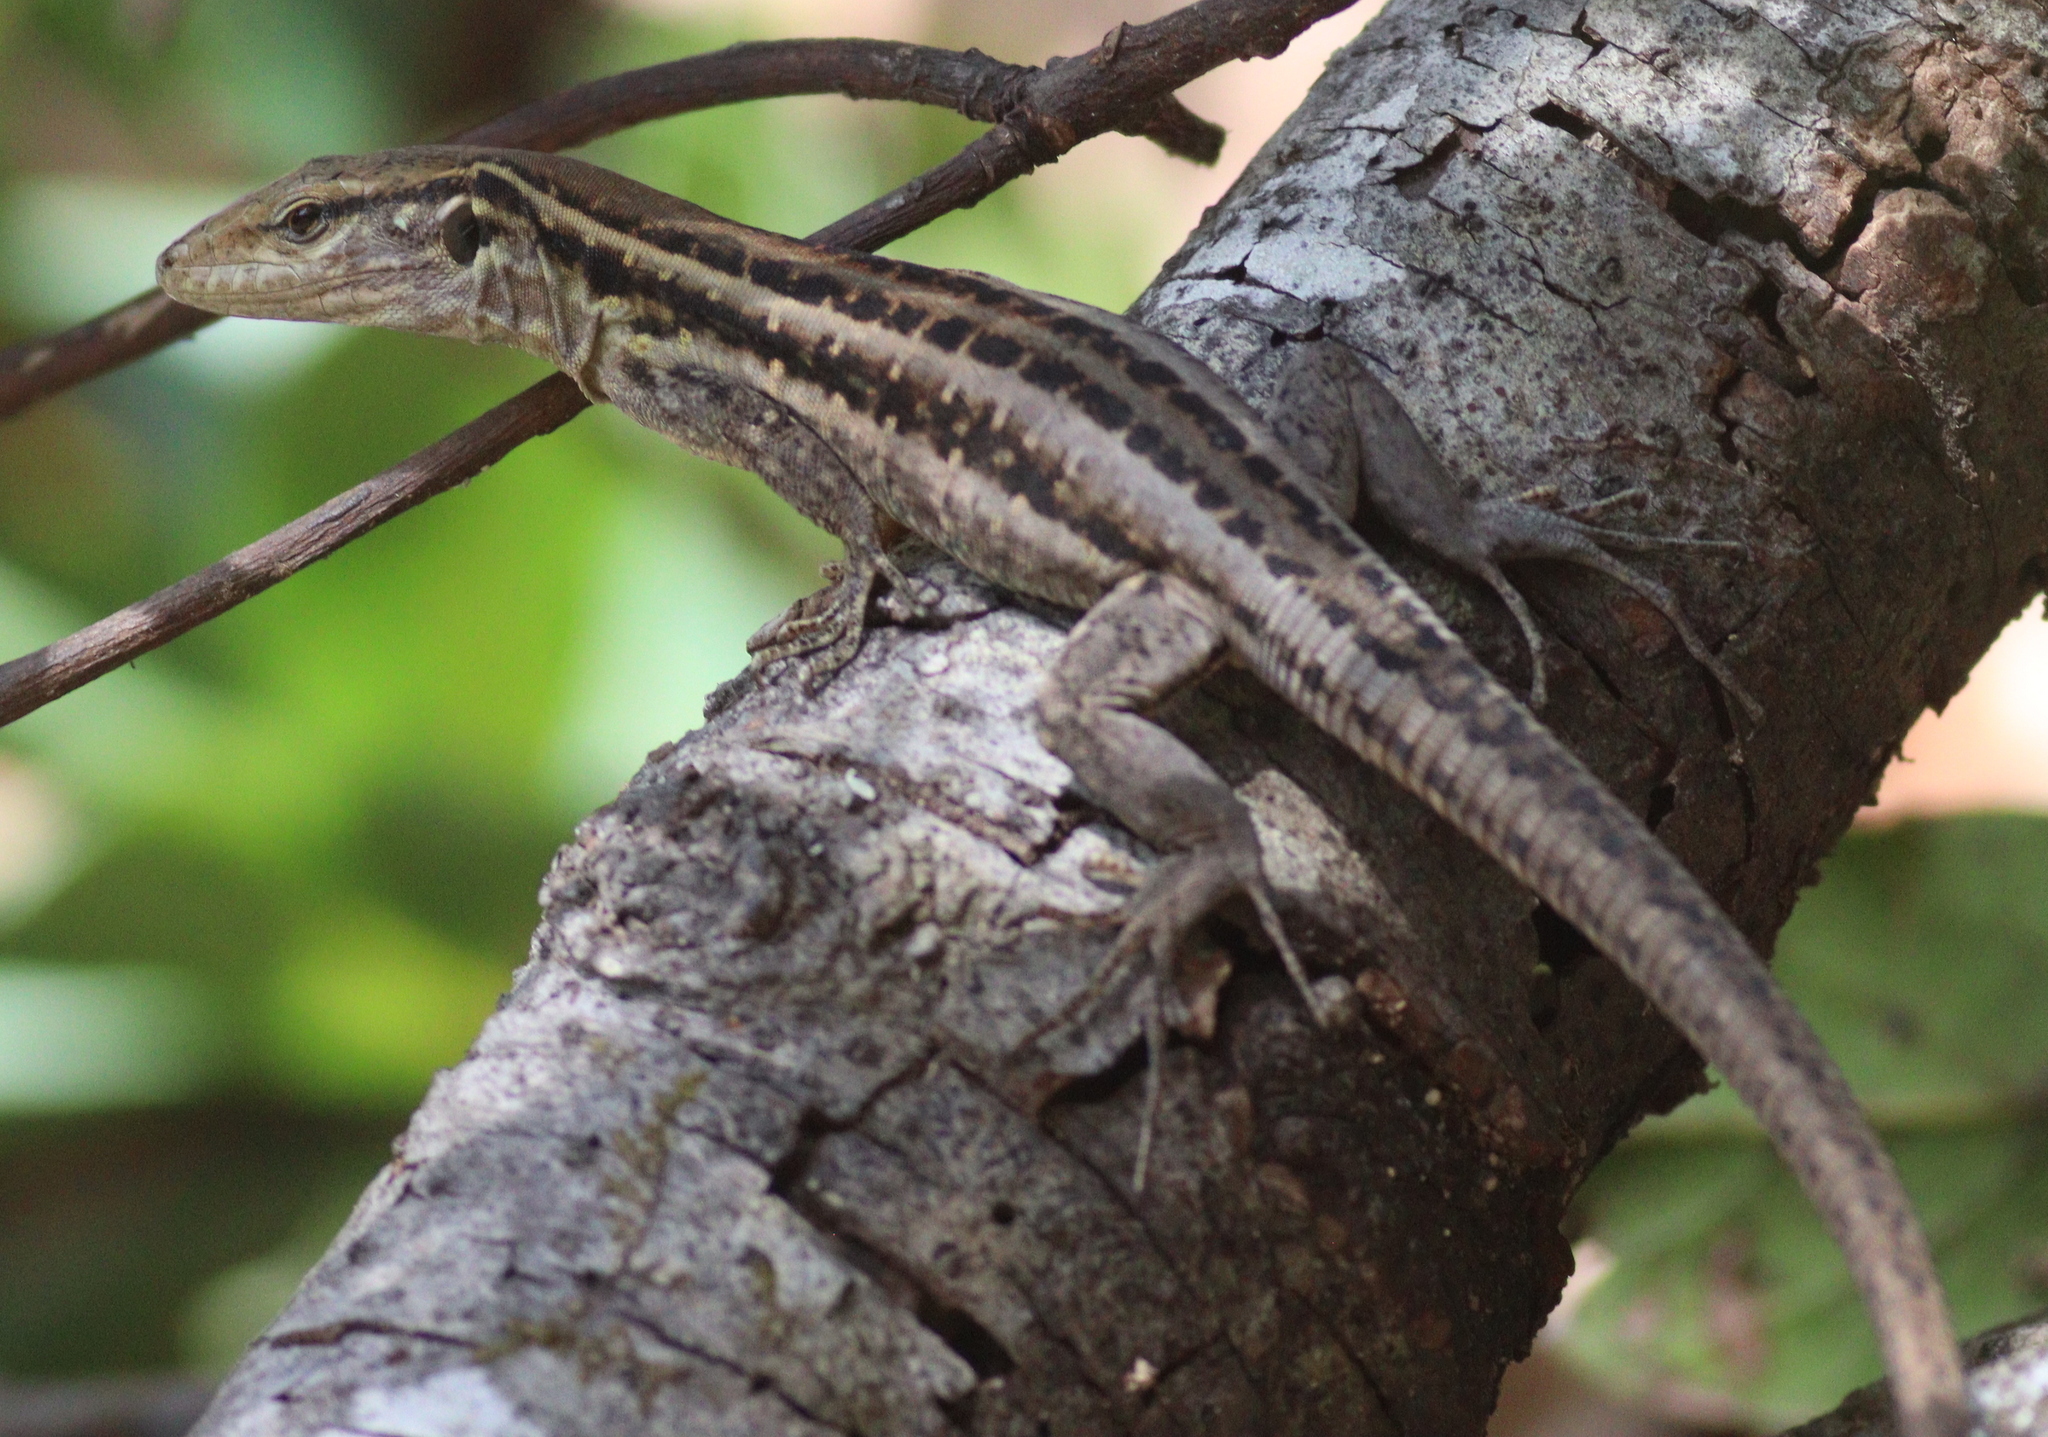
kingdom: Animalia
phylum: Chordata
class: Squamata
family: Lacertidae
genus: Gallotia
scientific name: Gallotia galloti
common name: Gallot's lizard
